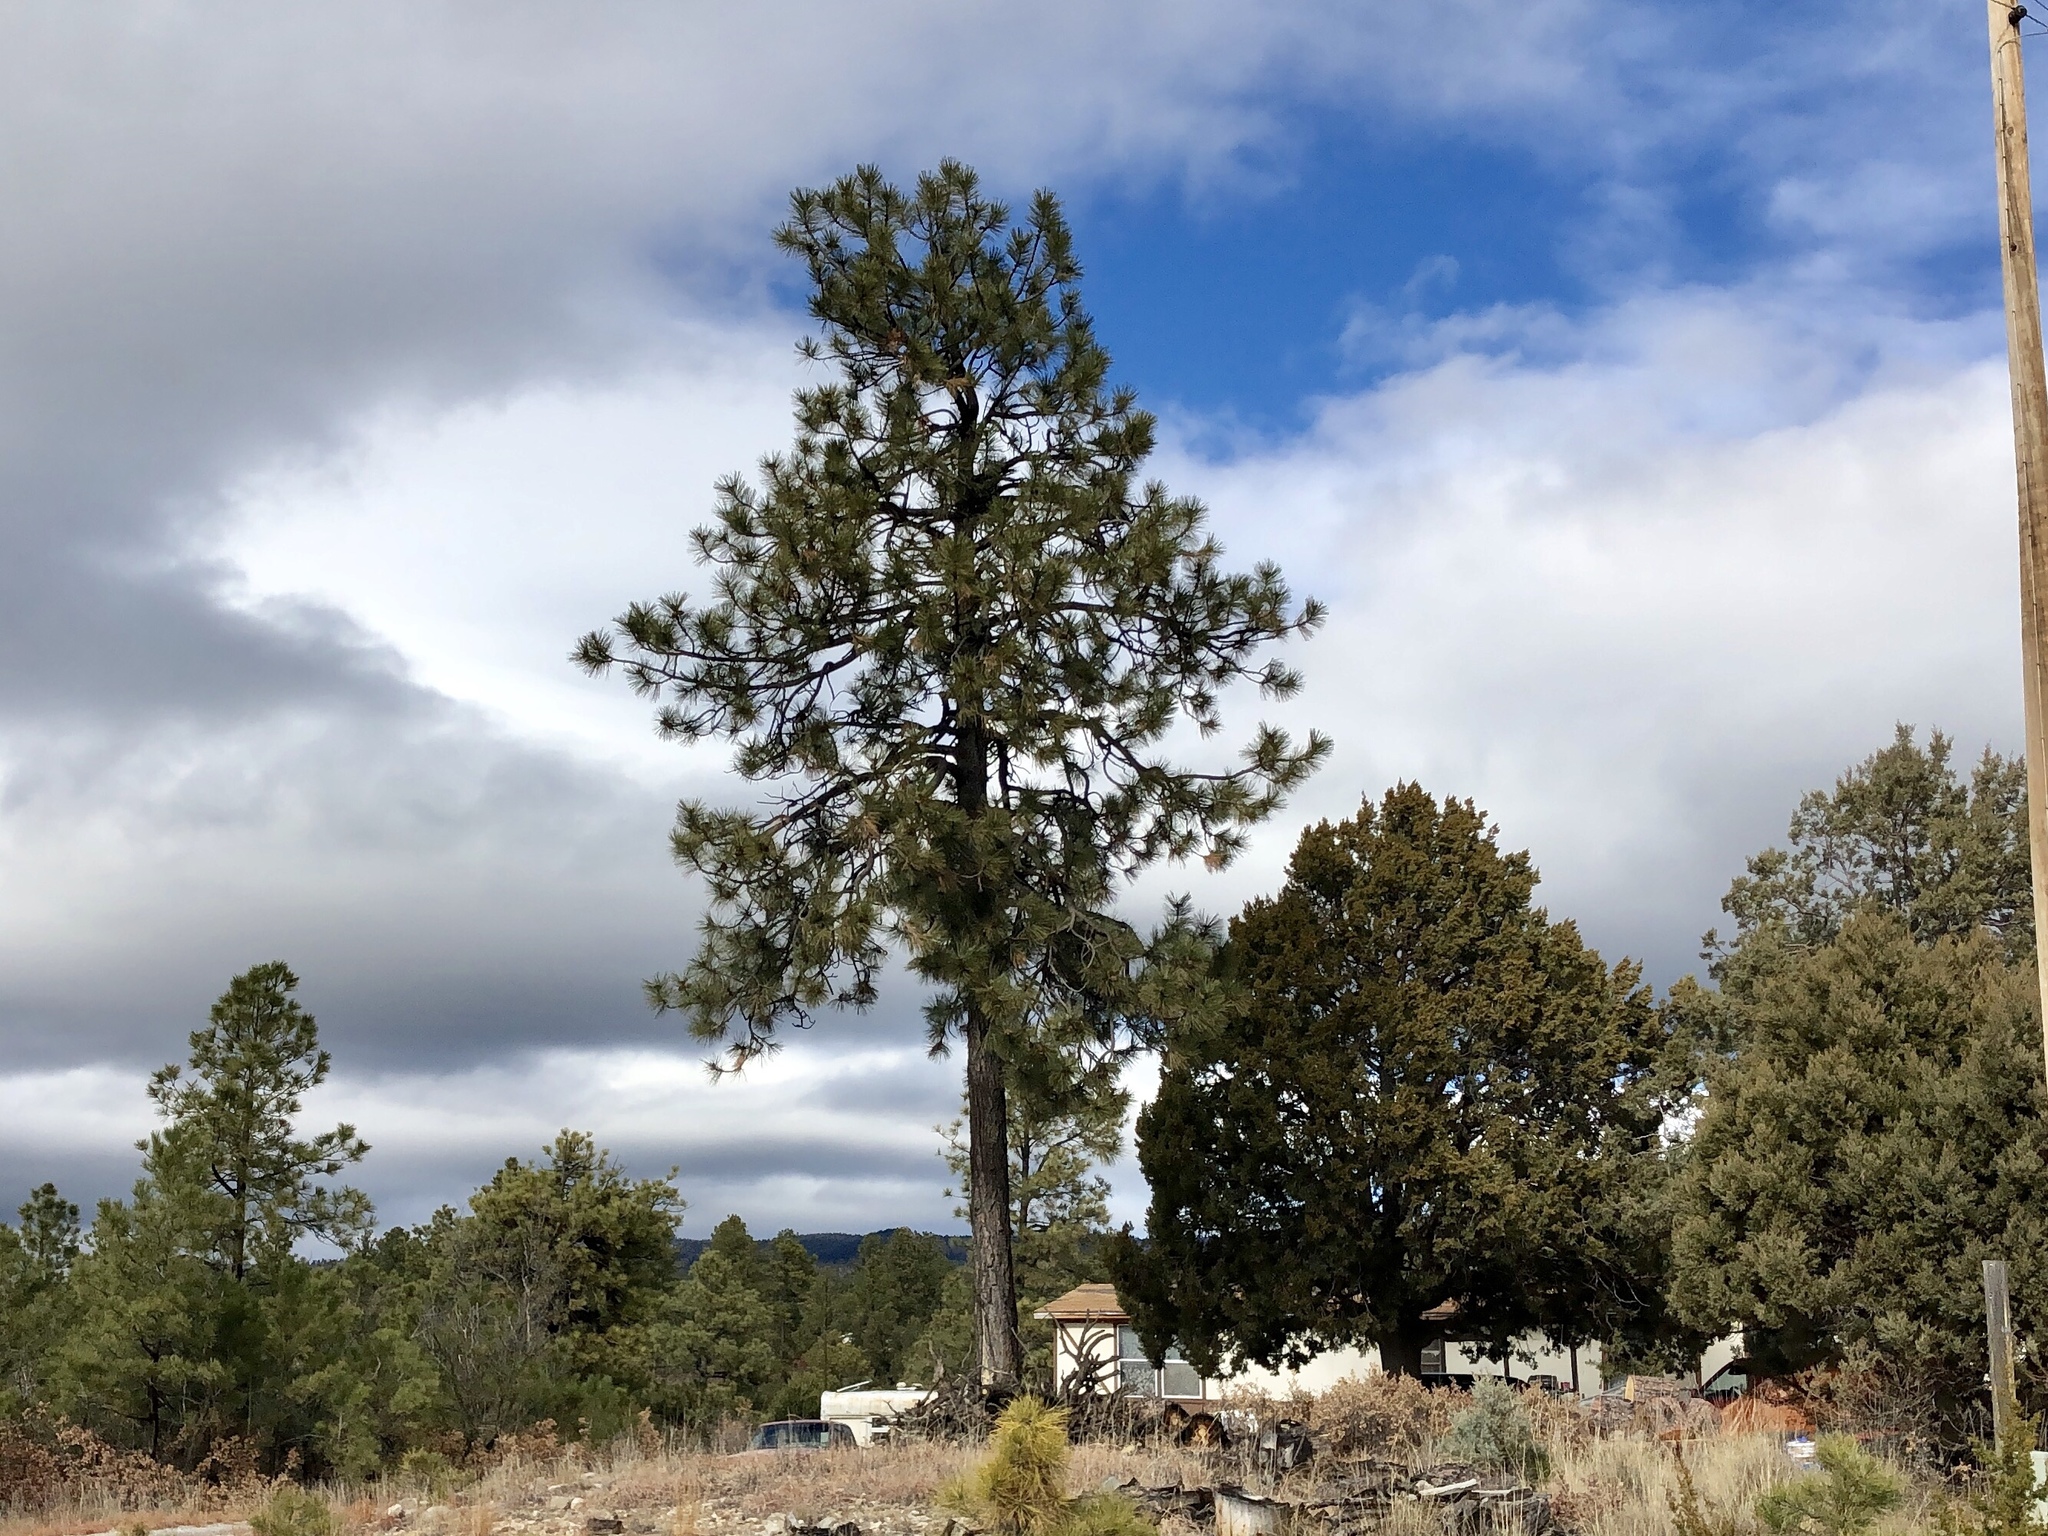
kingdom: Plantae
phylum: Tracheophyta
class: Pinopsida
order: Pinales
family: Pinaceae
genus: Pinus
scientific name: Pinus ponderosa
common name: Western yellow-pine
